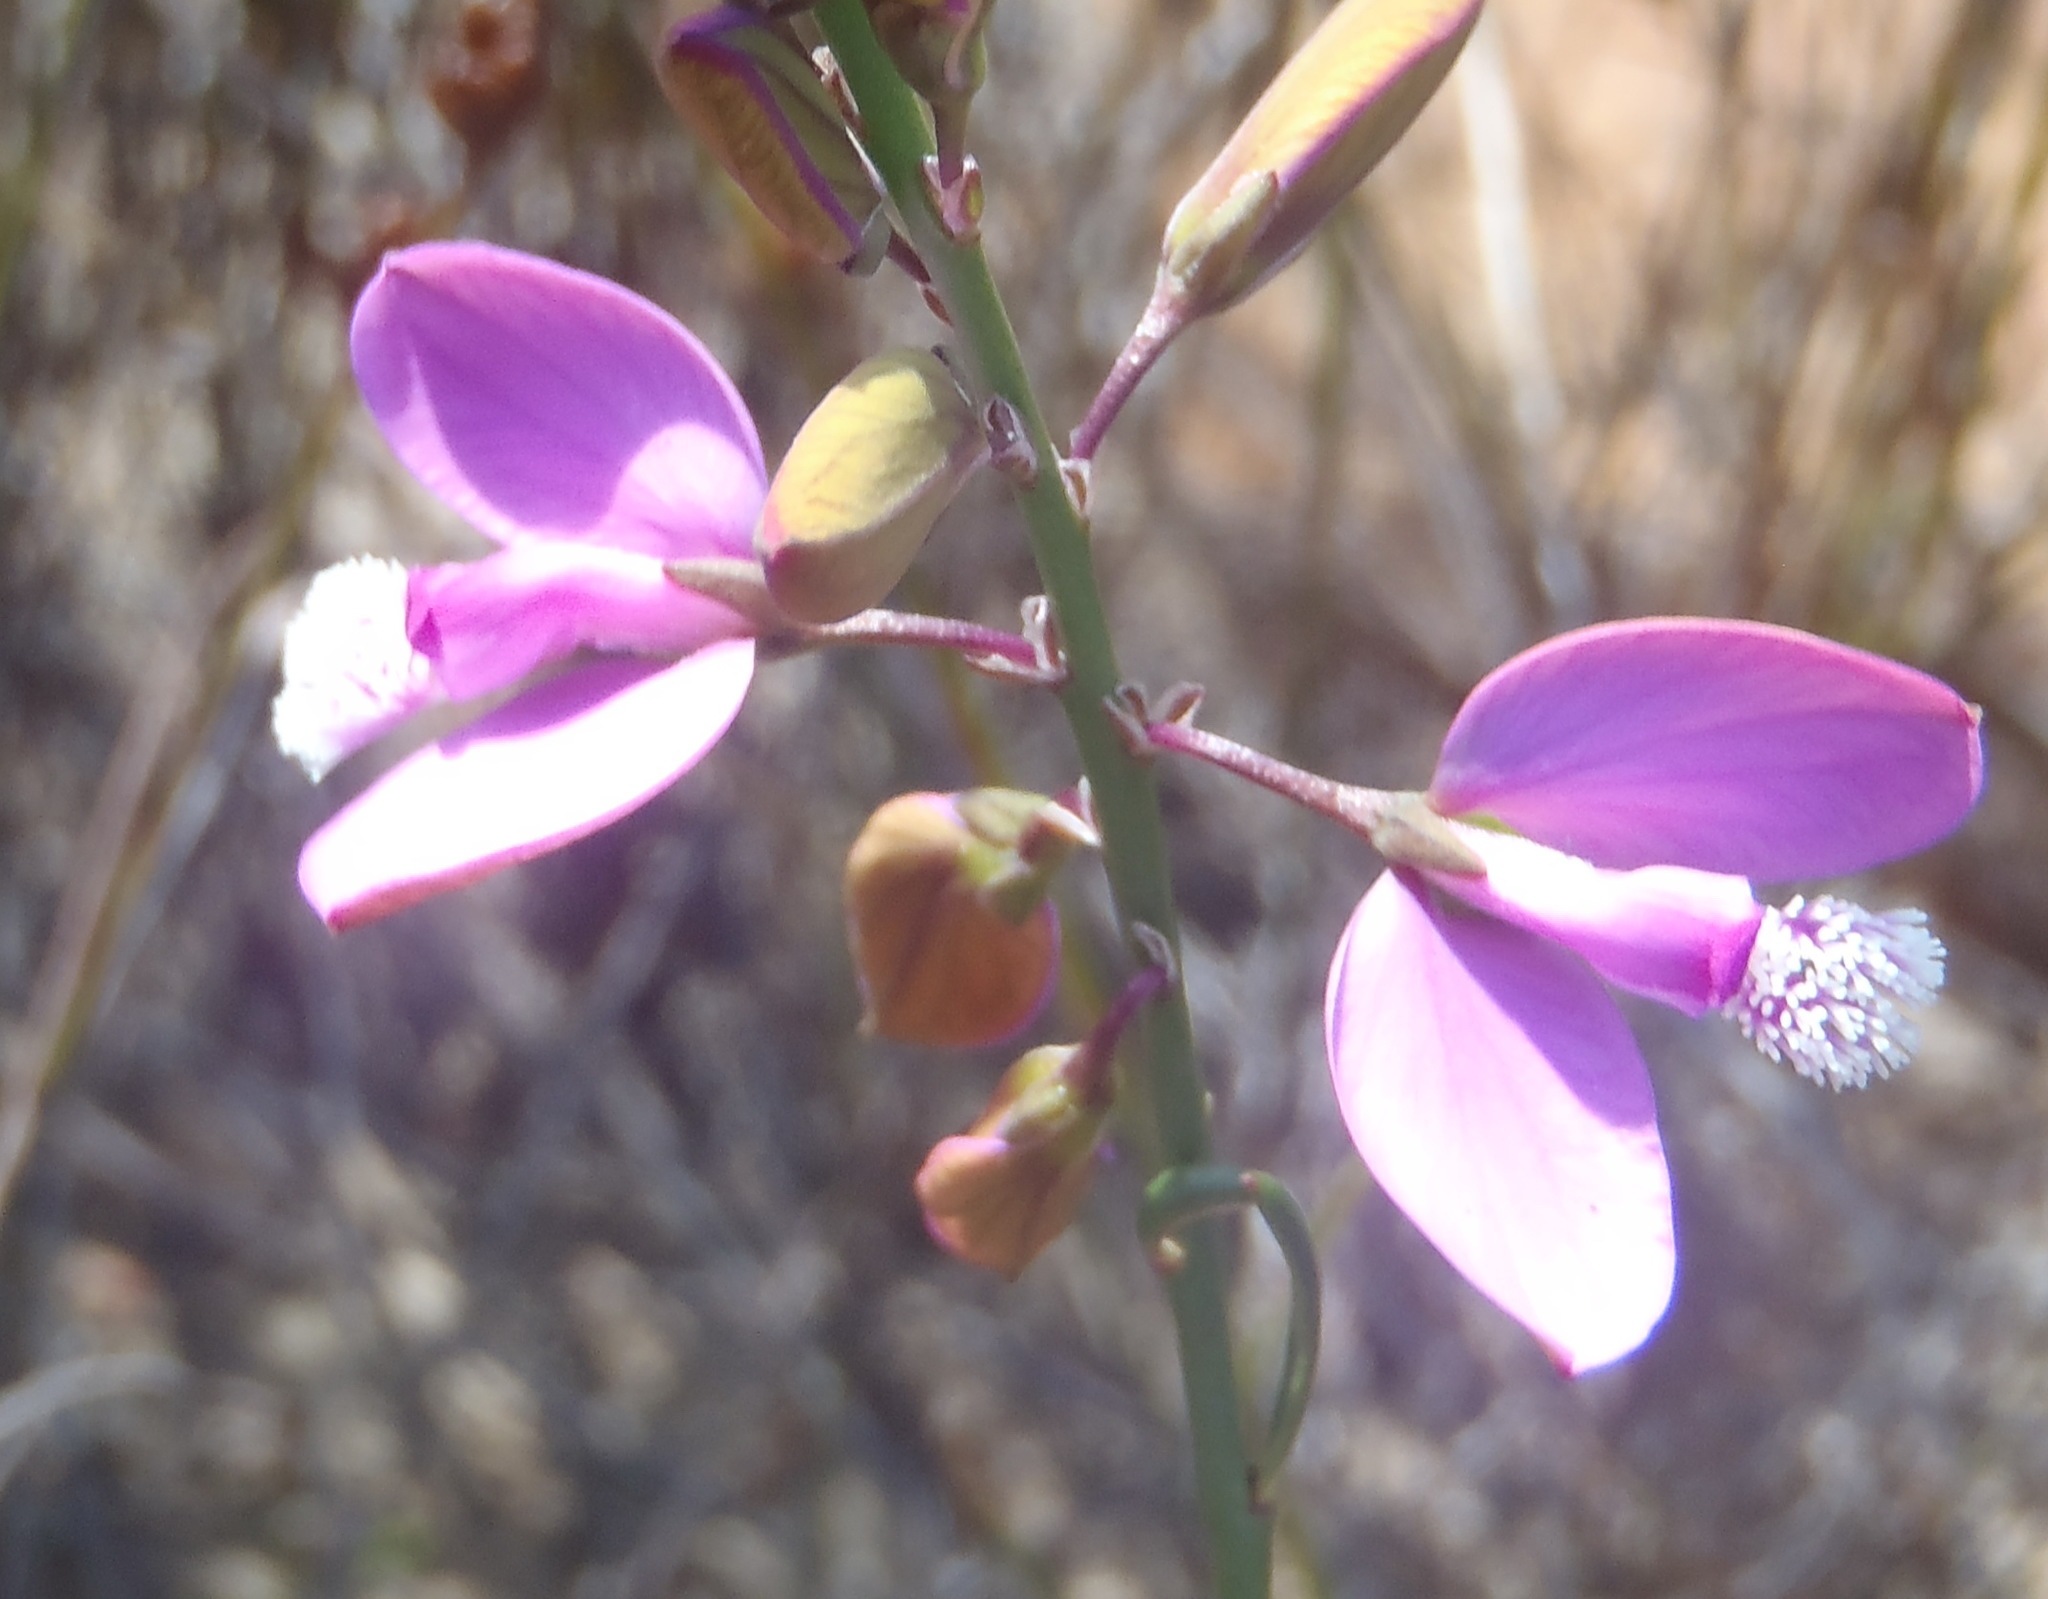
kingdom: Plantae
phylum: Tracheophyta
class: Magnoliopsida
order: Fabales
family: Polygalaceae
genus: Polygala
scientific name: Polygala garcini
